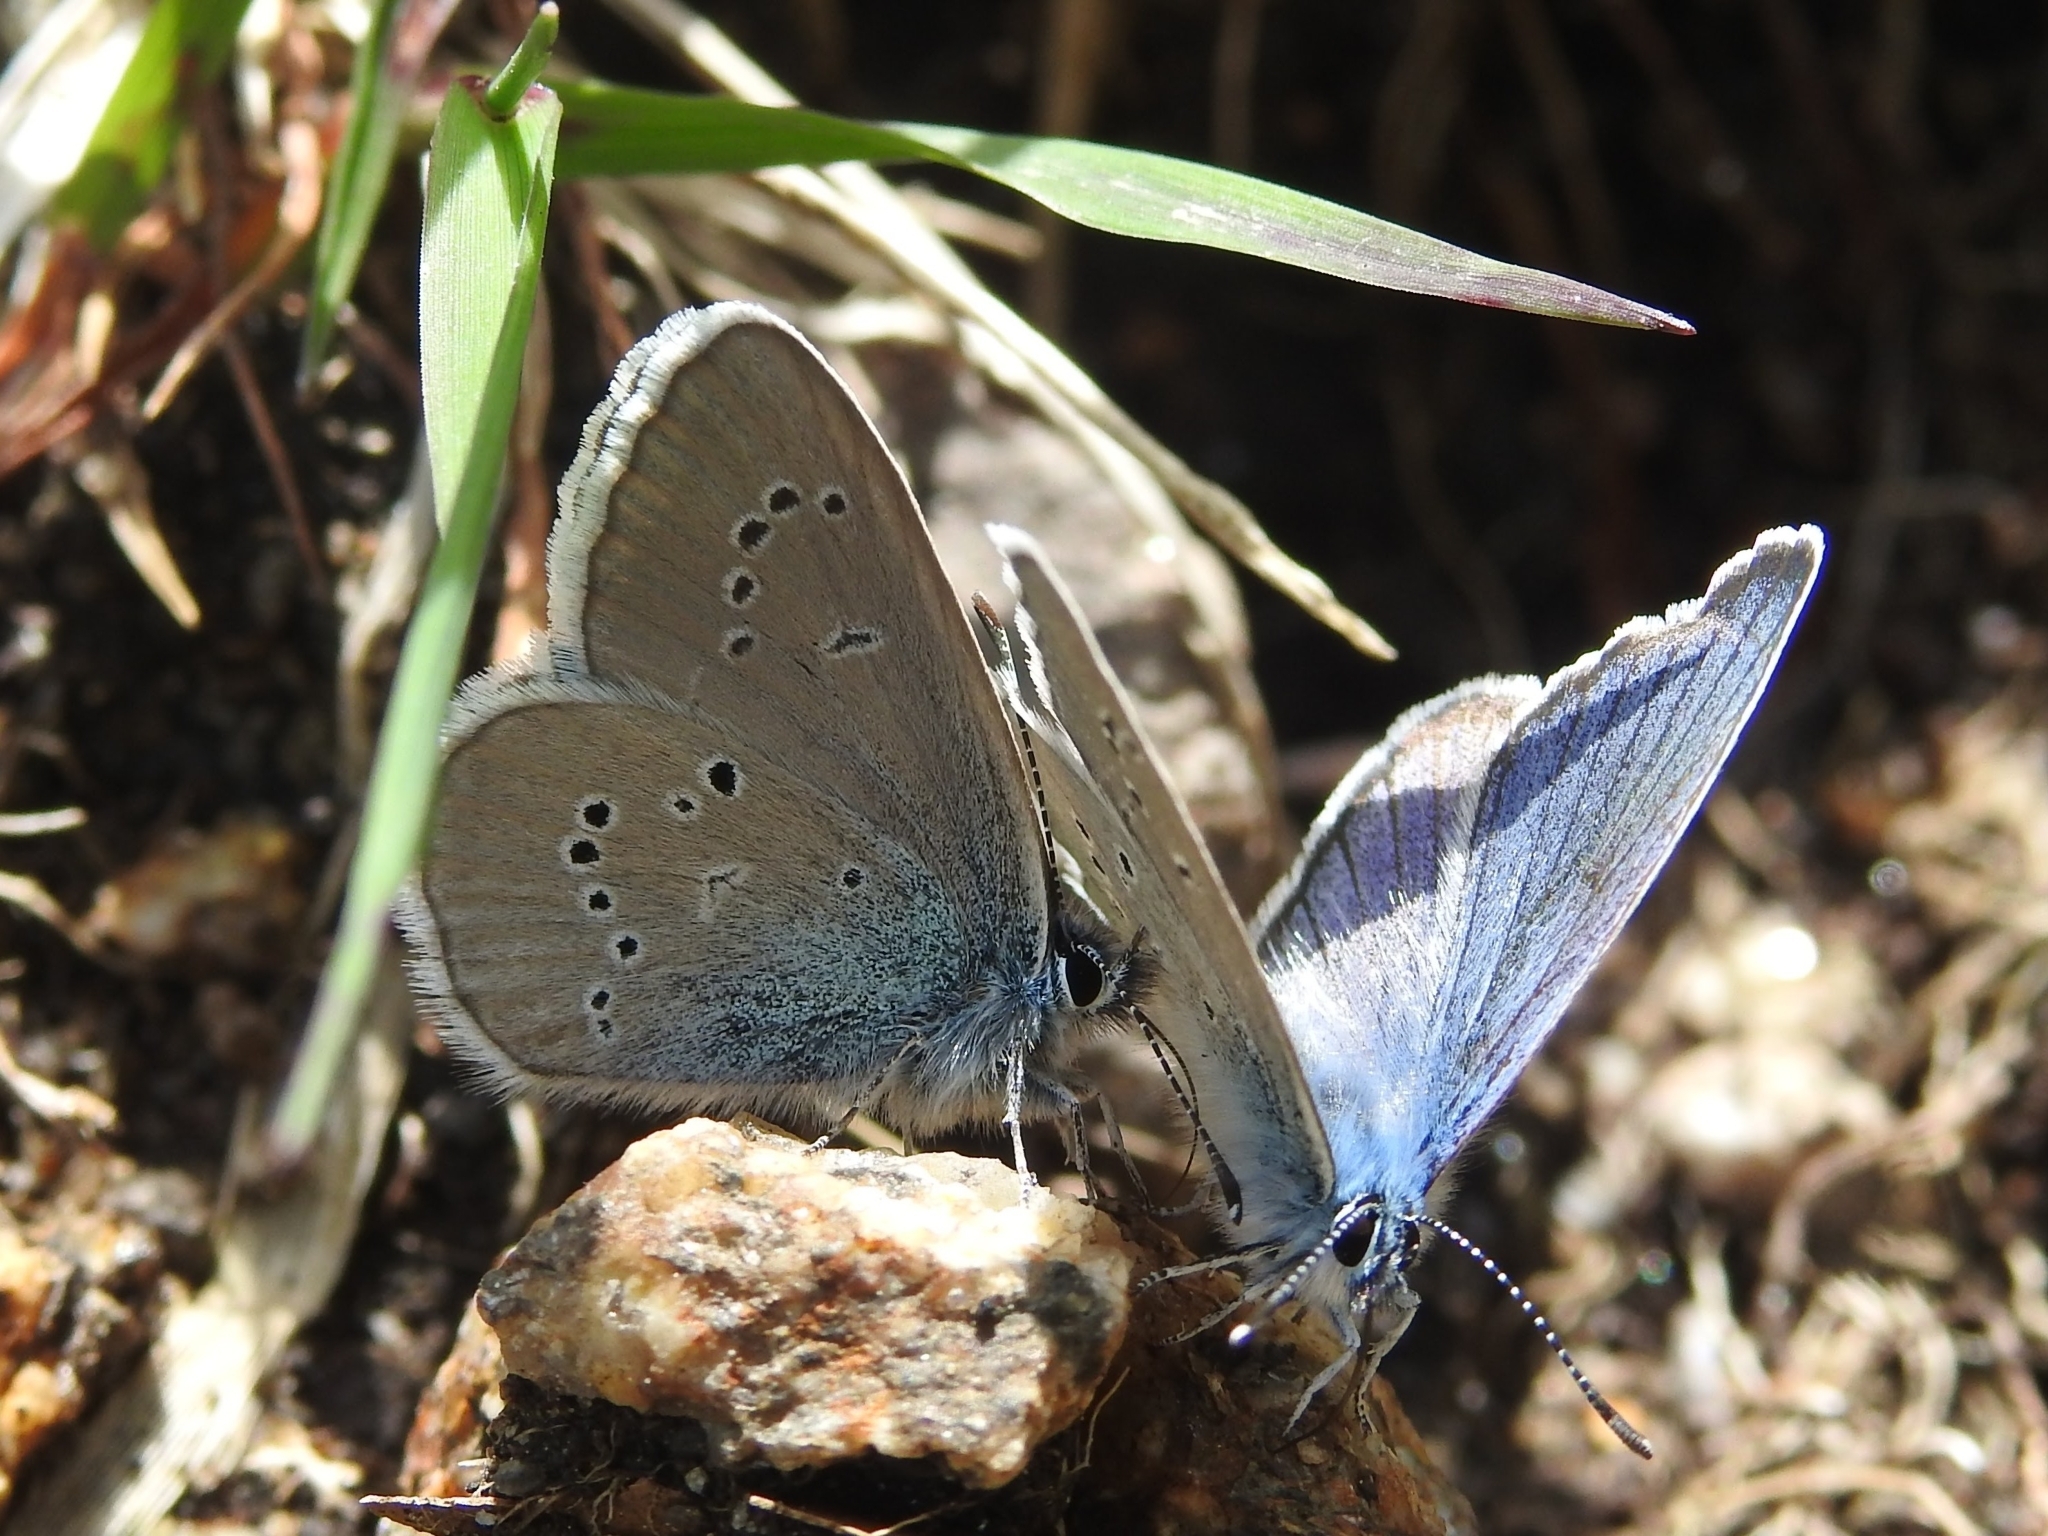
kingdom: Animalia
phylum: Arthropoda
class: Insecta
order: Lepidoptera
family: Lycaenidae
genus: Cyaniris
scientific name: Cyaniris semiargus
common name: Mazarine blue
